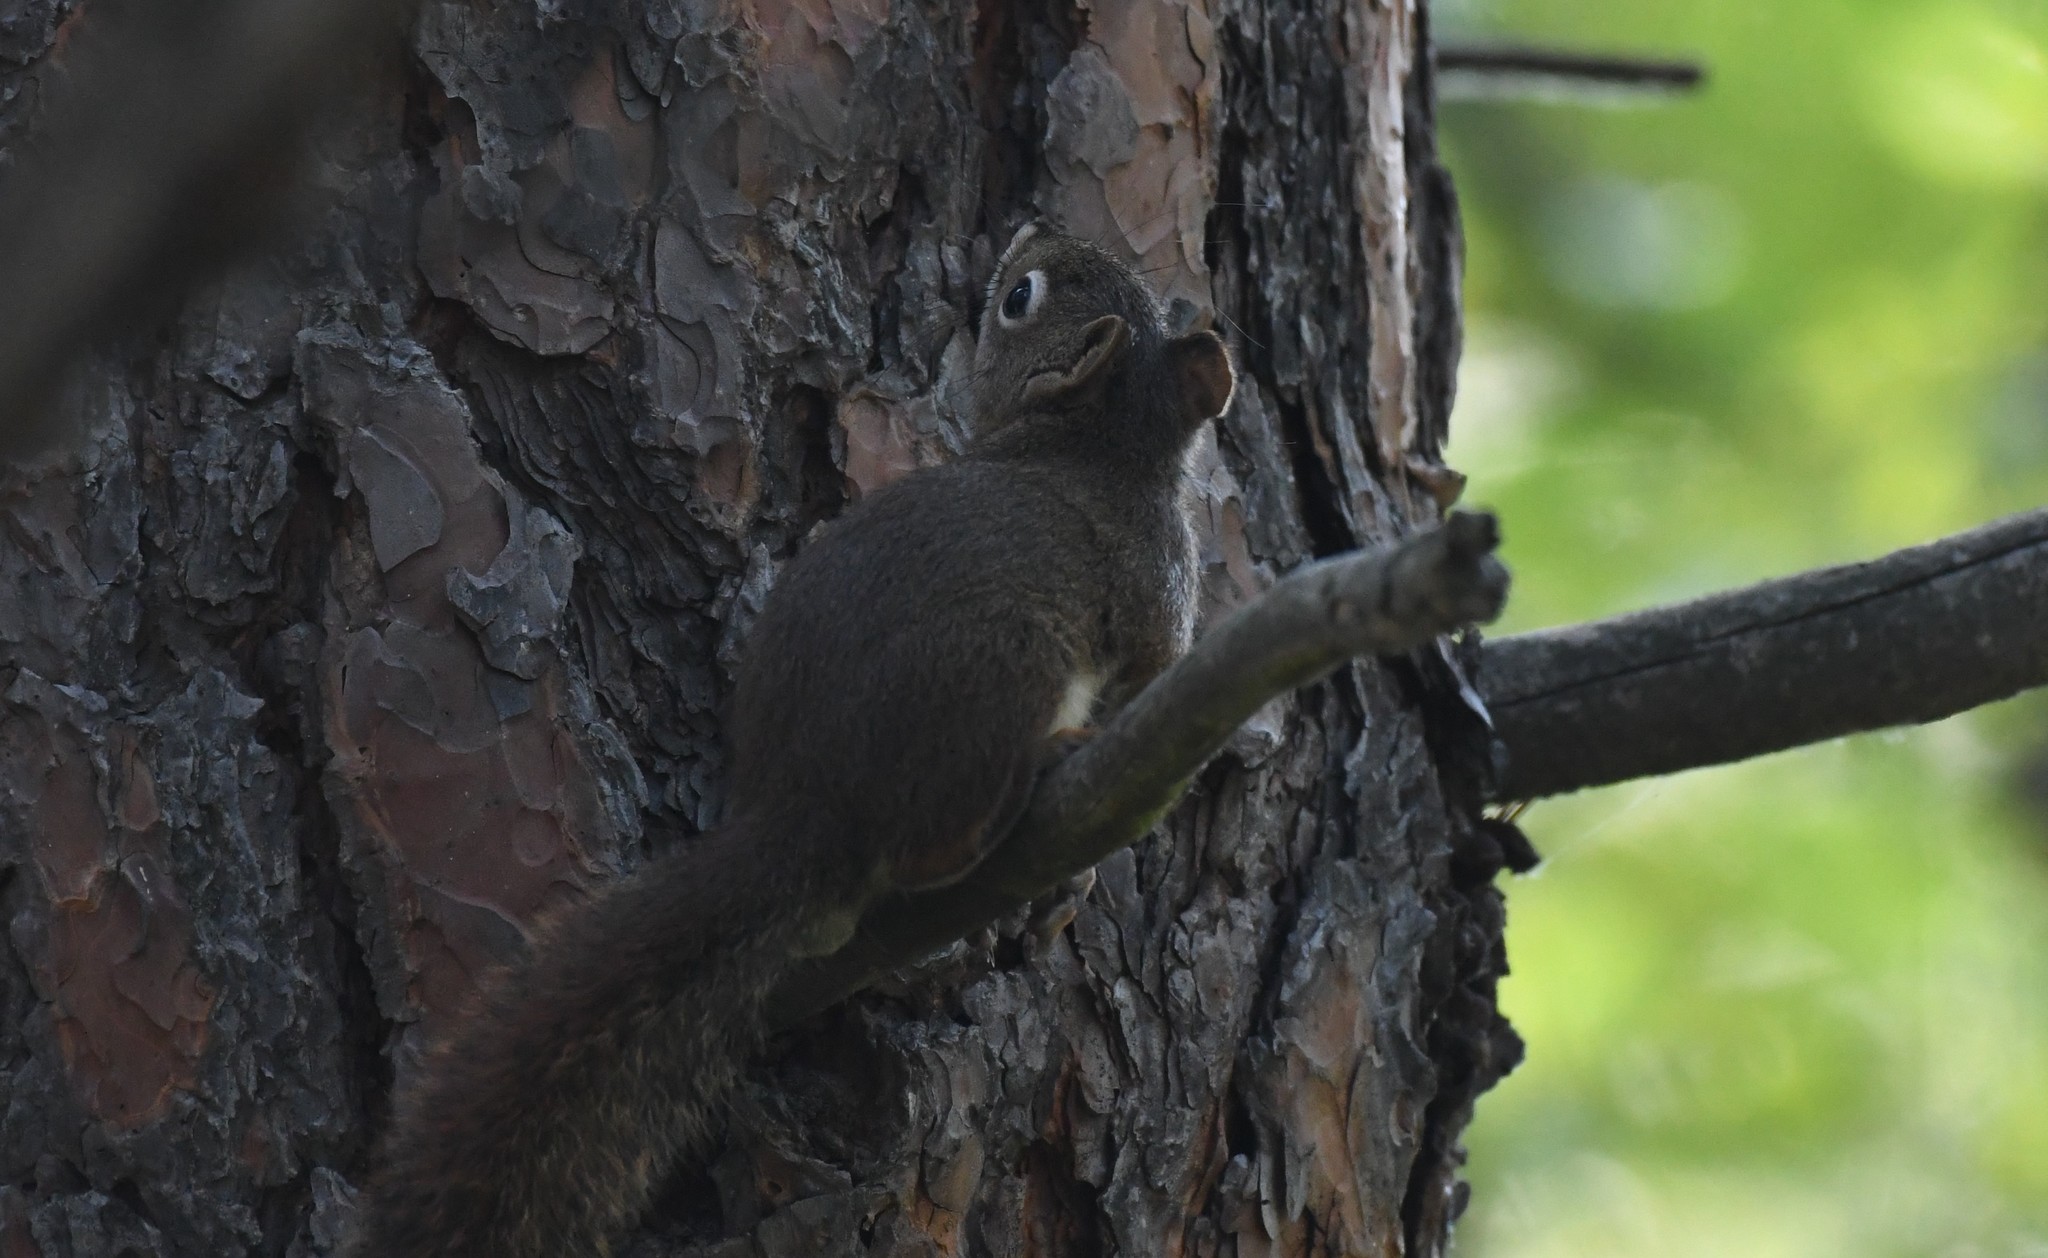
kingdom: Animalia
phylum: Chordata
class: Mammalia
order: Rodentia
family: Sciuridae
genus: Tamiasciurus
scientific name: Tamiasciurus hudsonicus
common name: Red squirrel
